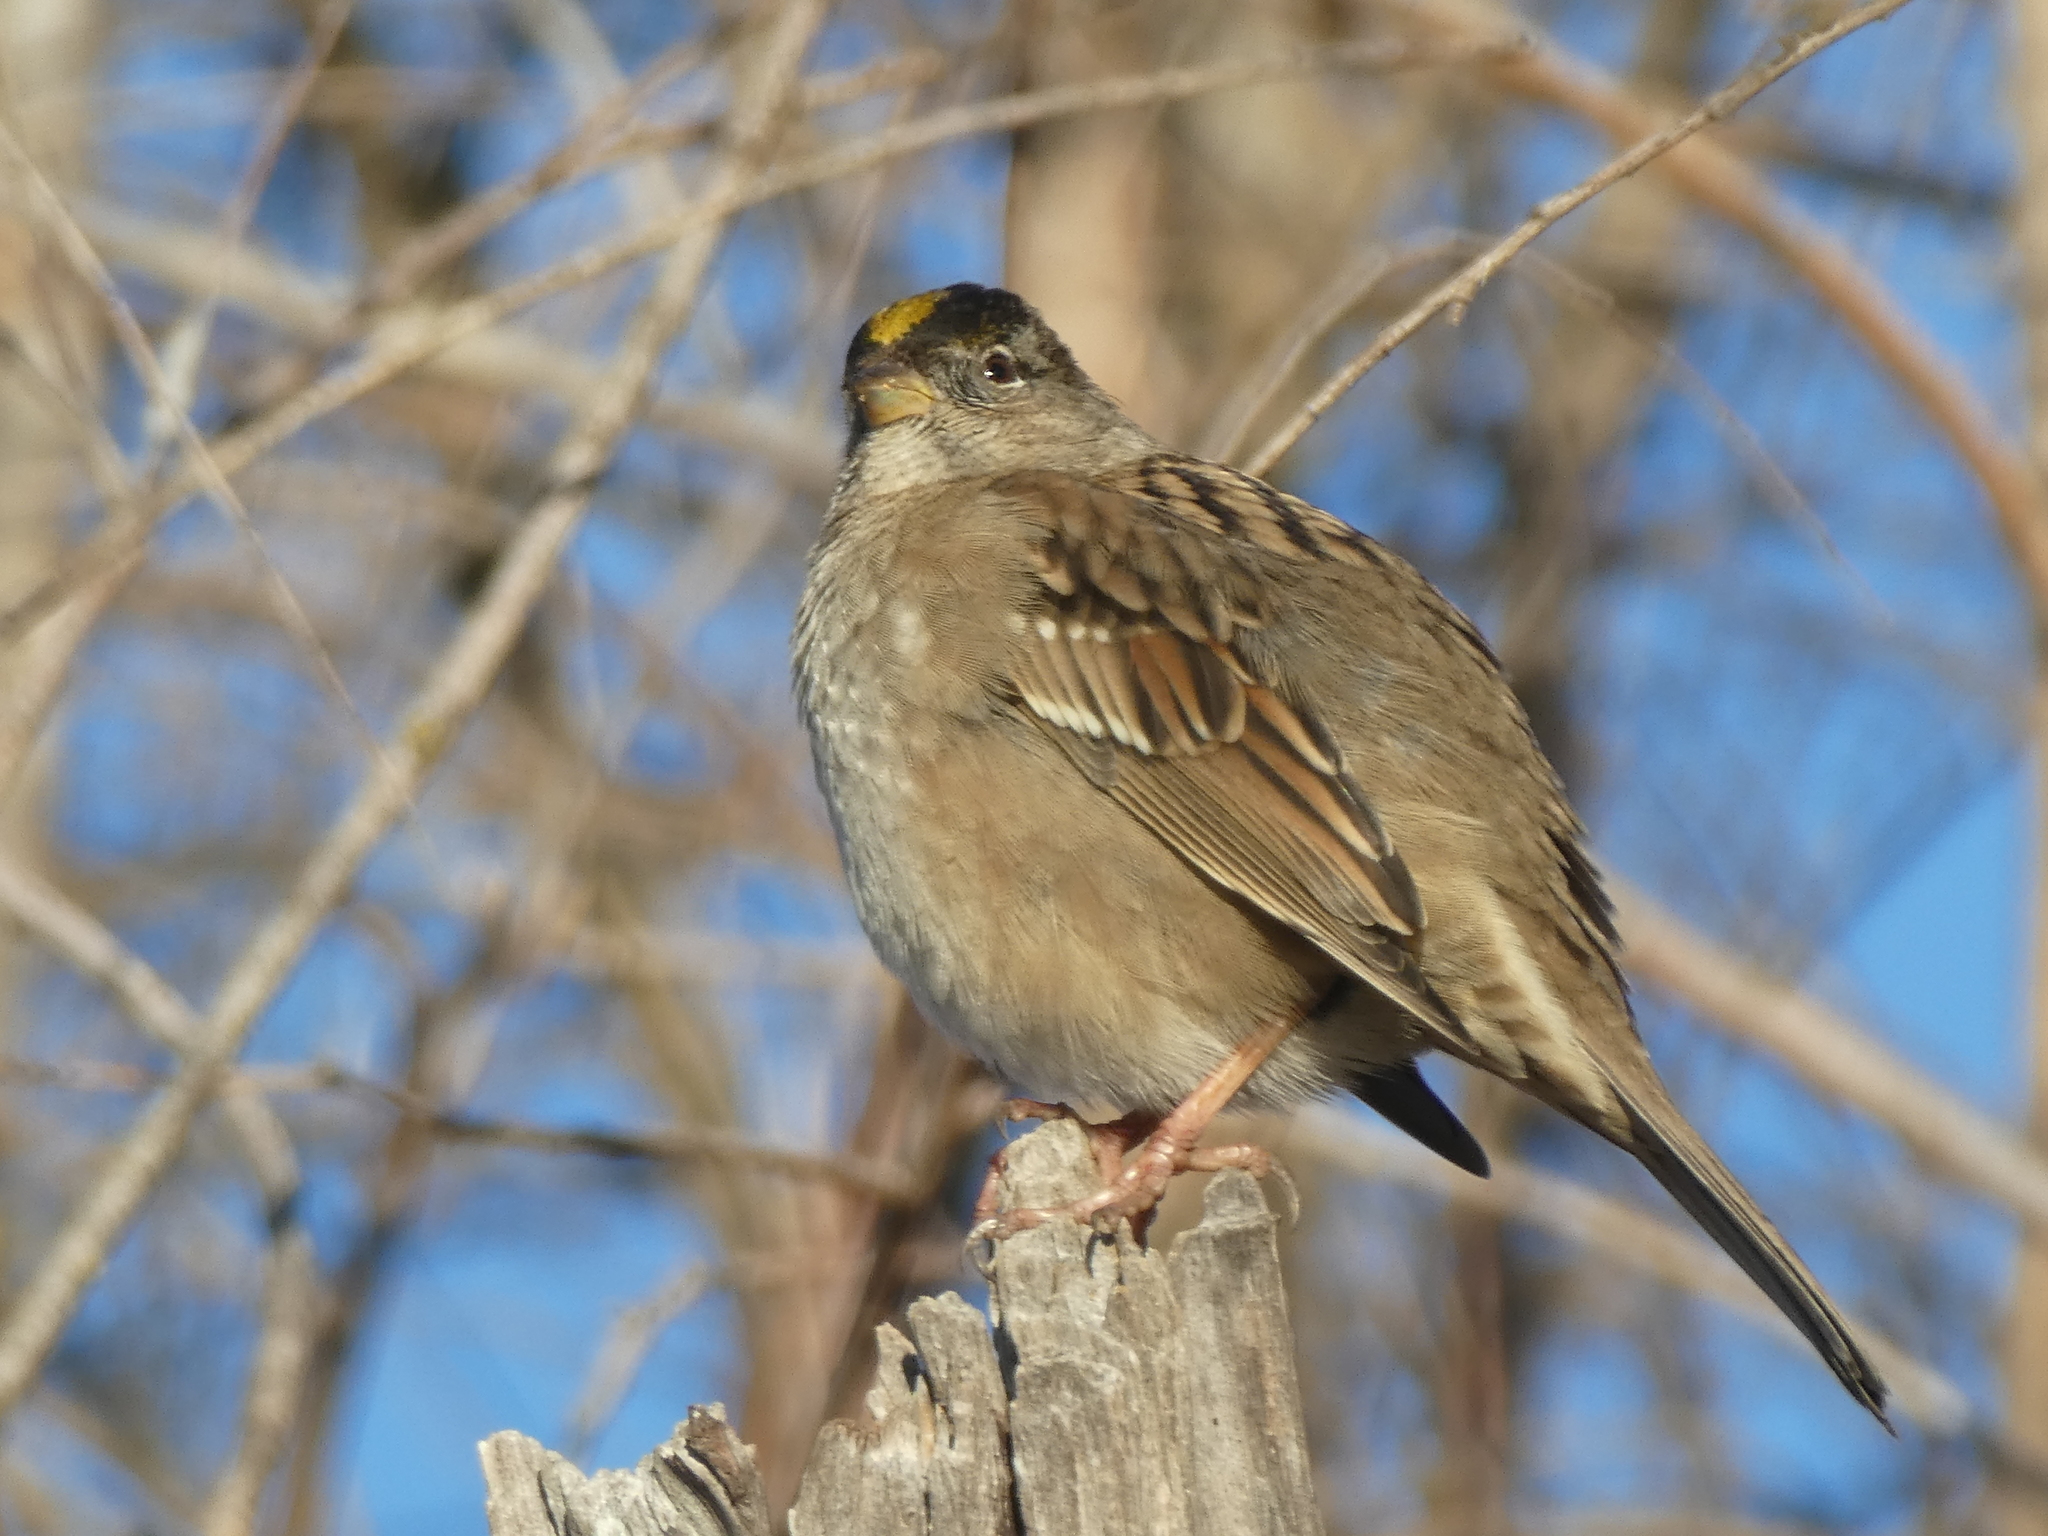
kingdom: Animalia
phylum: Chordata
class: Aves
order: Passeriformes
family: Passerellidae
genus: Zonotrichia
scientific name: Zonotrichia atricapilla
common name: Golden-crowned sparrow
